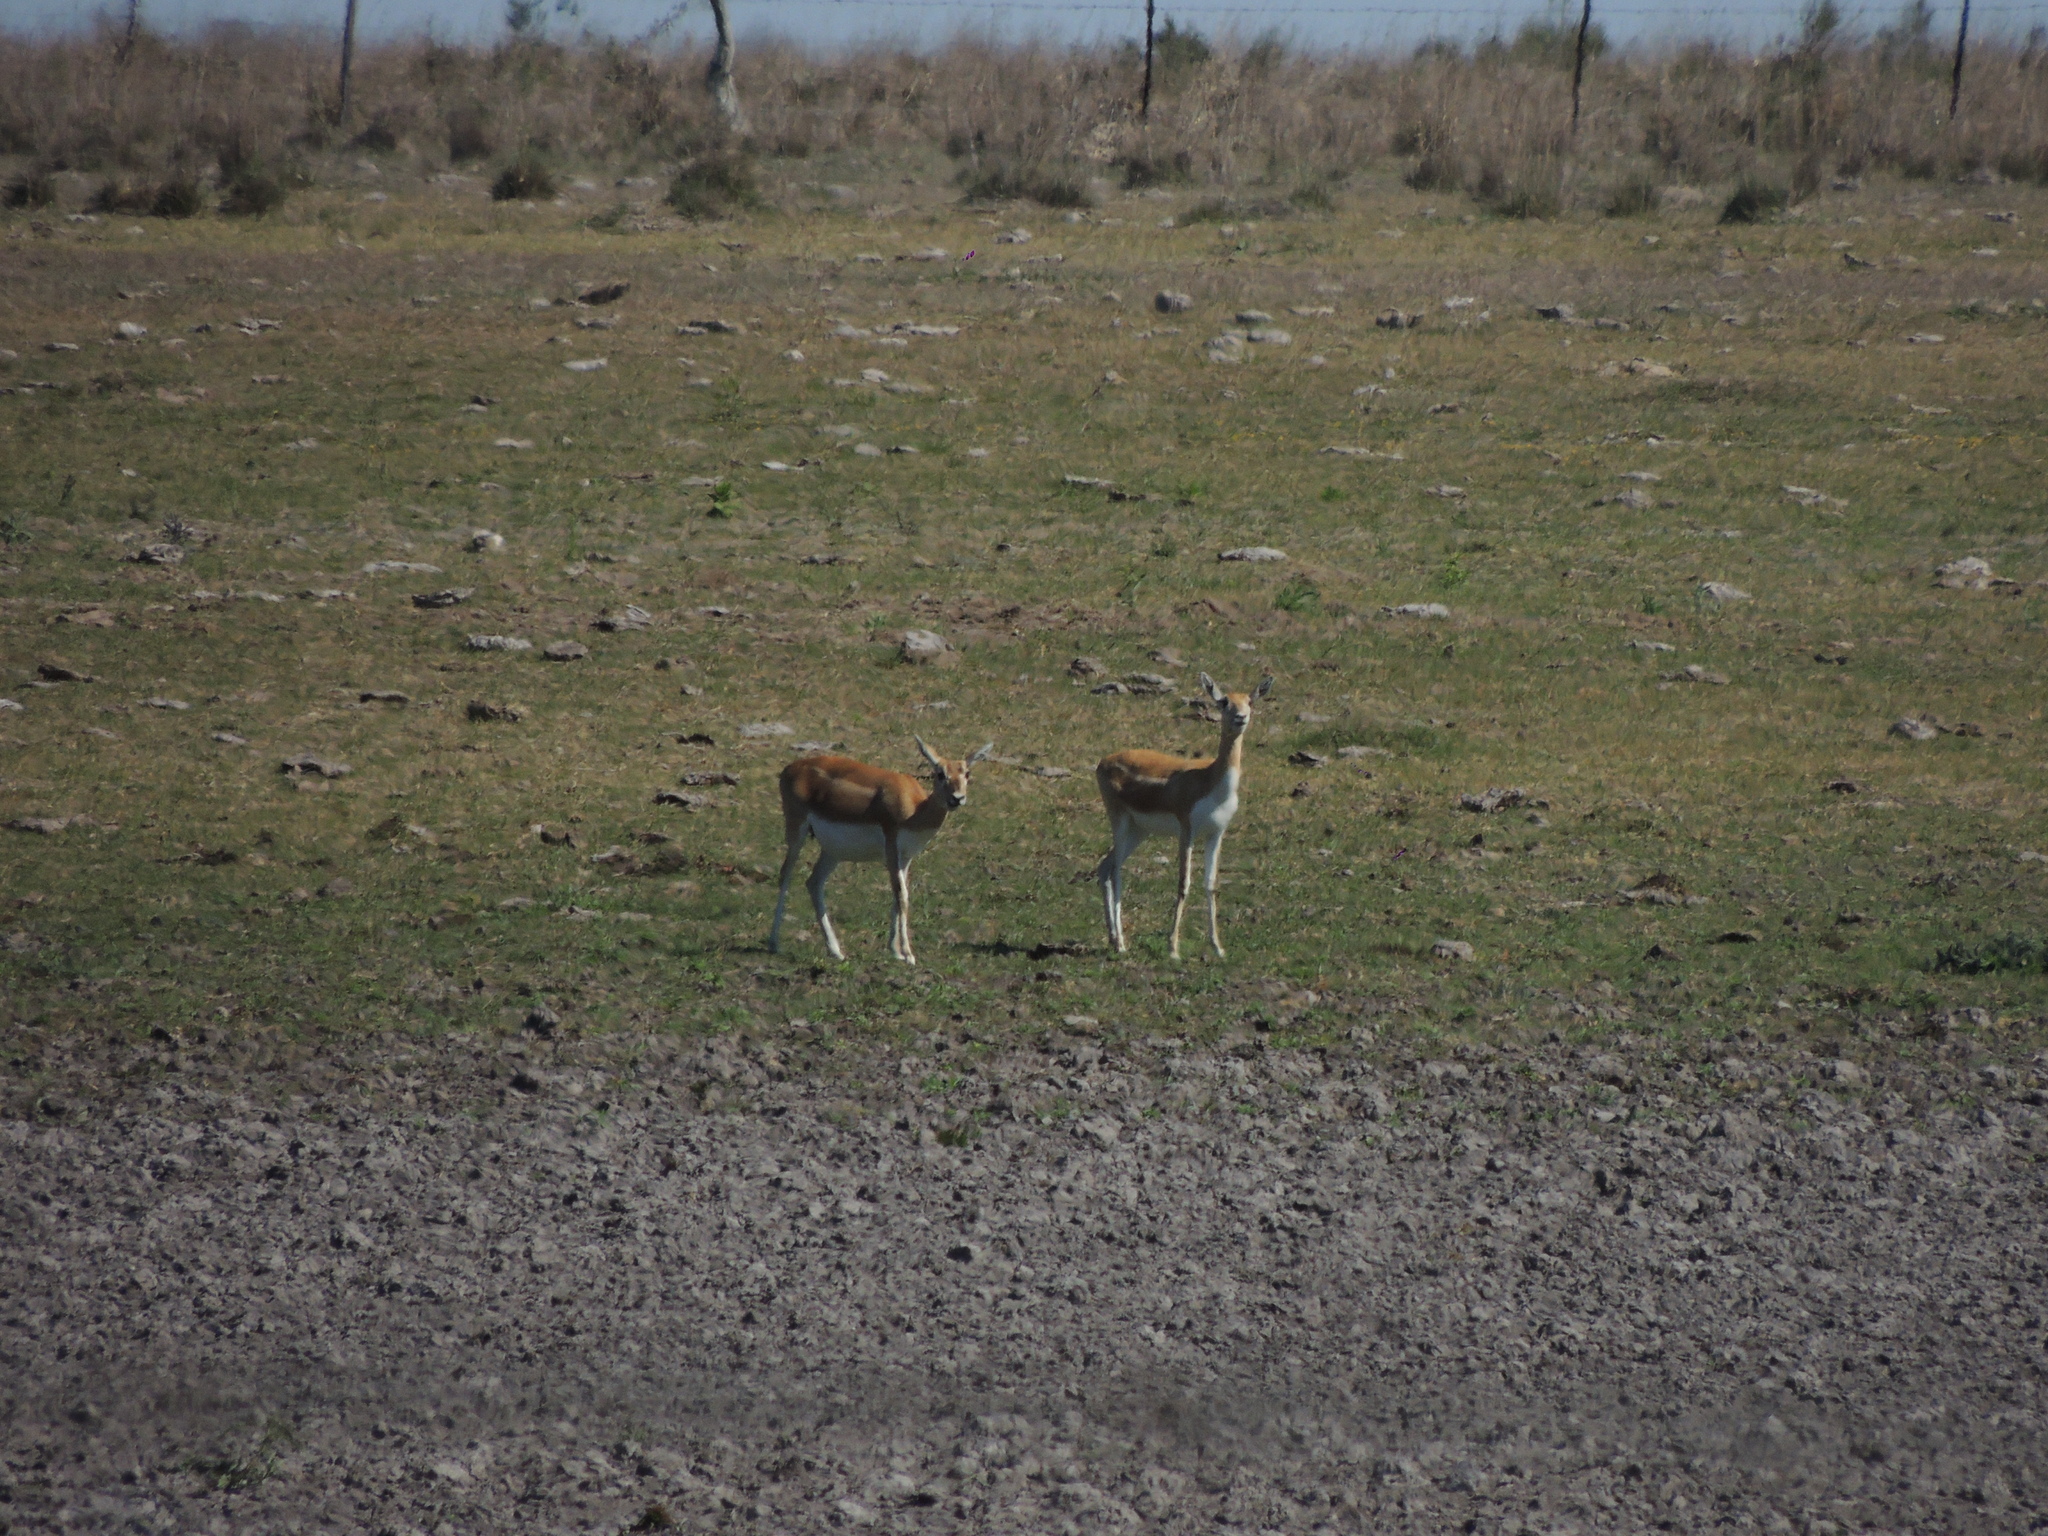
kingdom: Animalia
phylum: Chordata
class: Mammalia
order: Artiodactyla
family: Bovidae
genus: Antilope
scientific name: Antilope cervicapra
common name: Blackbuck
